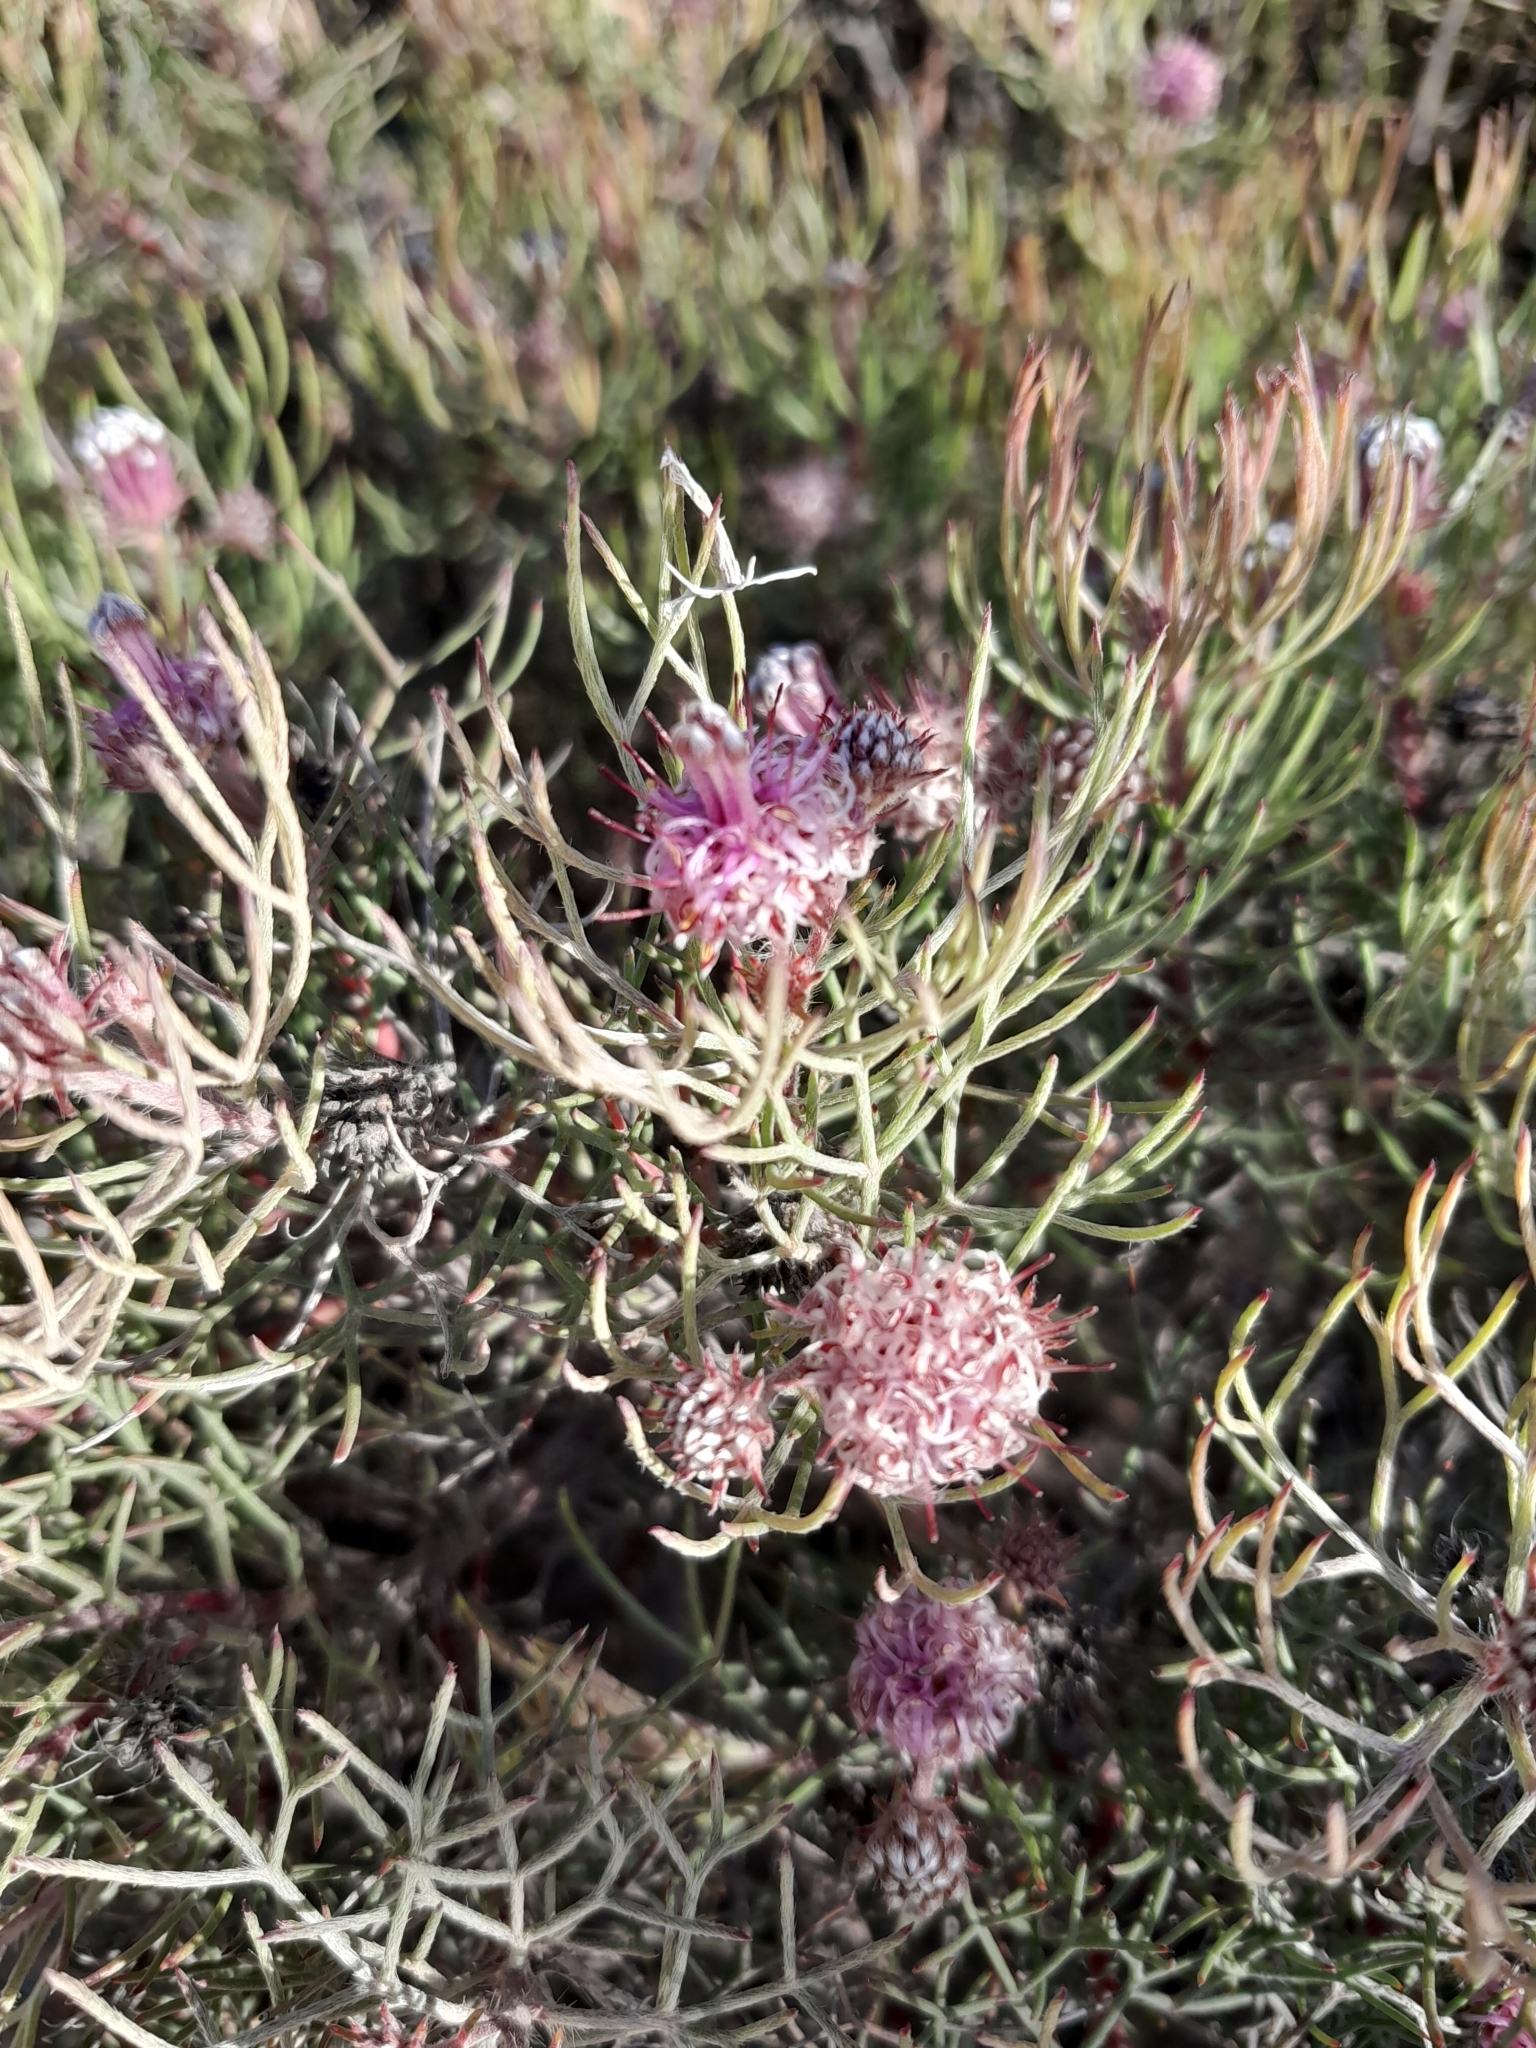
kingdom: Plantae
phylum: Tracheophyta
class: Magnoliopsida
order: Proteales
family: Proteaceae
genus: Serruria
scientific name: Serruria fasciflora
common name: Common pin spiderhead
